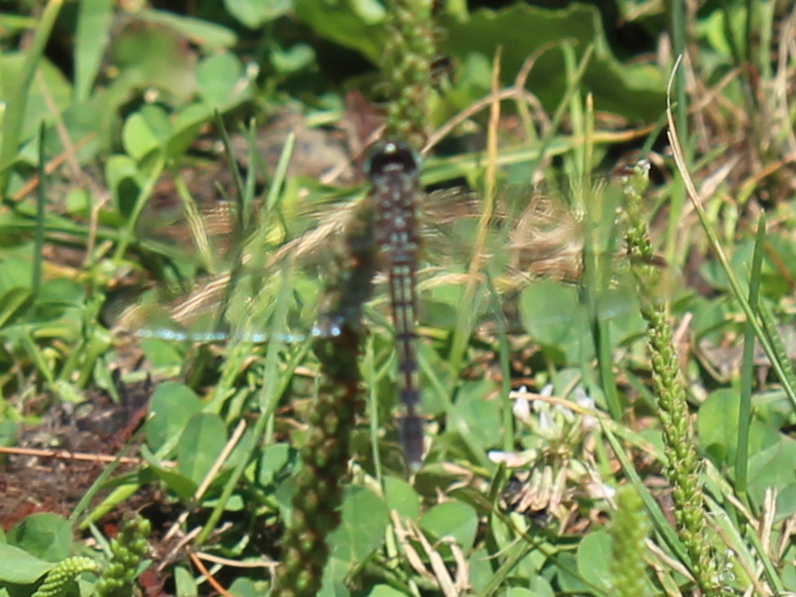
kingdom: Animalia
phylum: Arthropoda
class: Insecta
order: Odonata
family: Libellulidae
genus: Pachydiplax
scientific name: Pachydiplax longipennis
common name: Blue dasher
